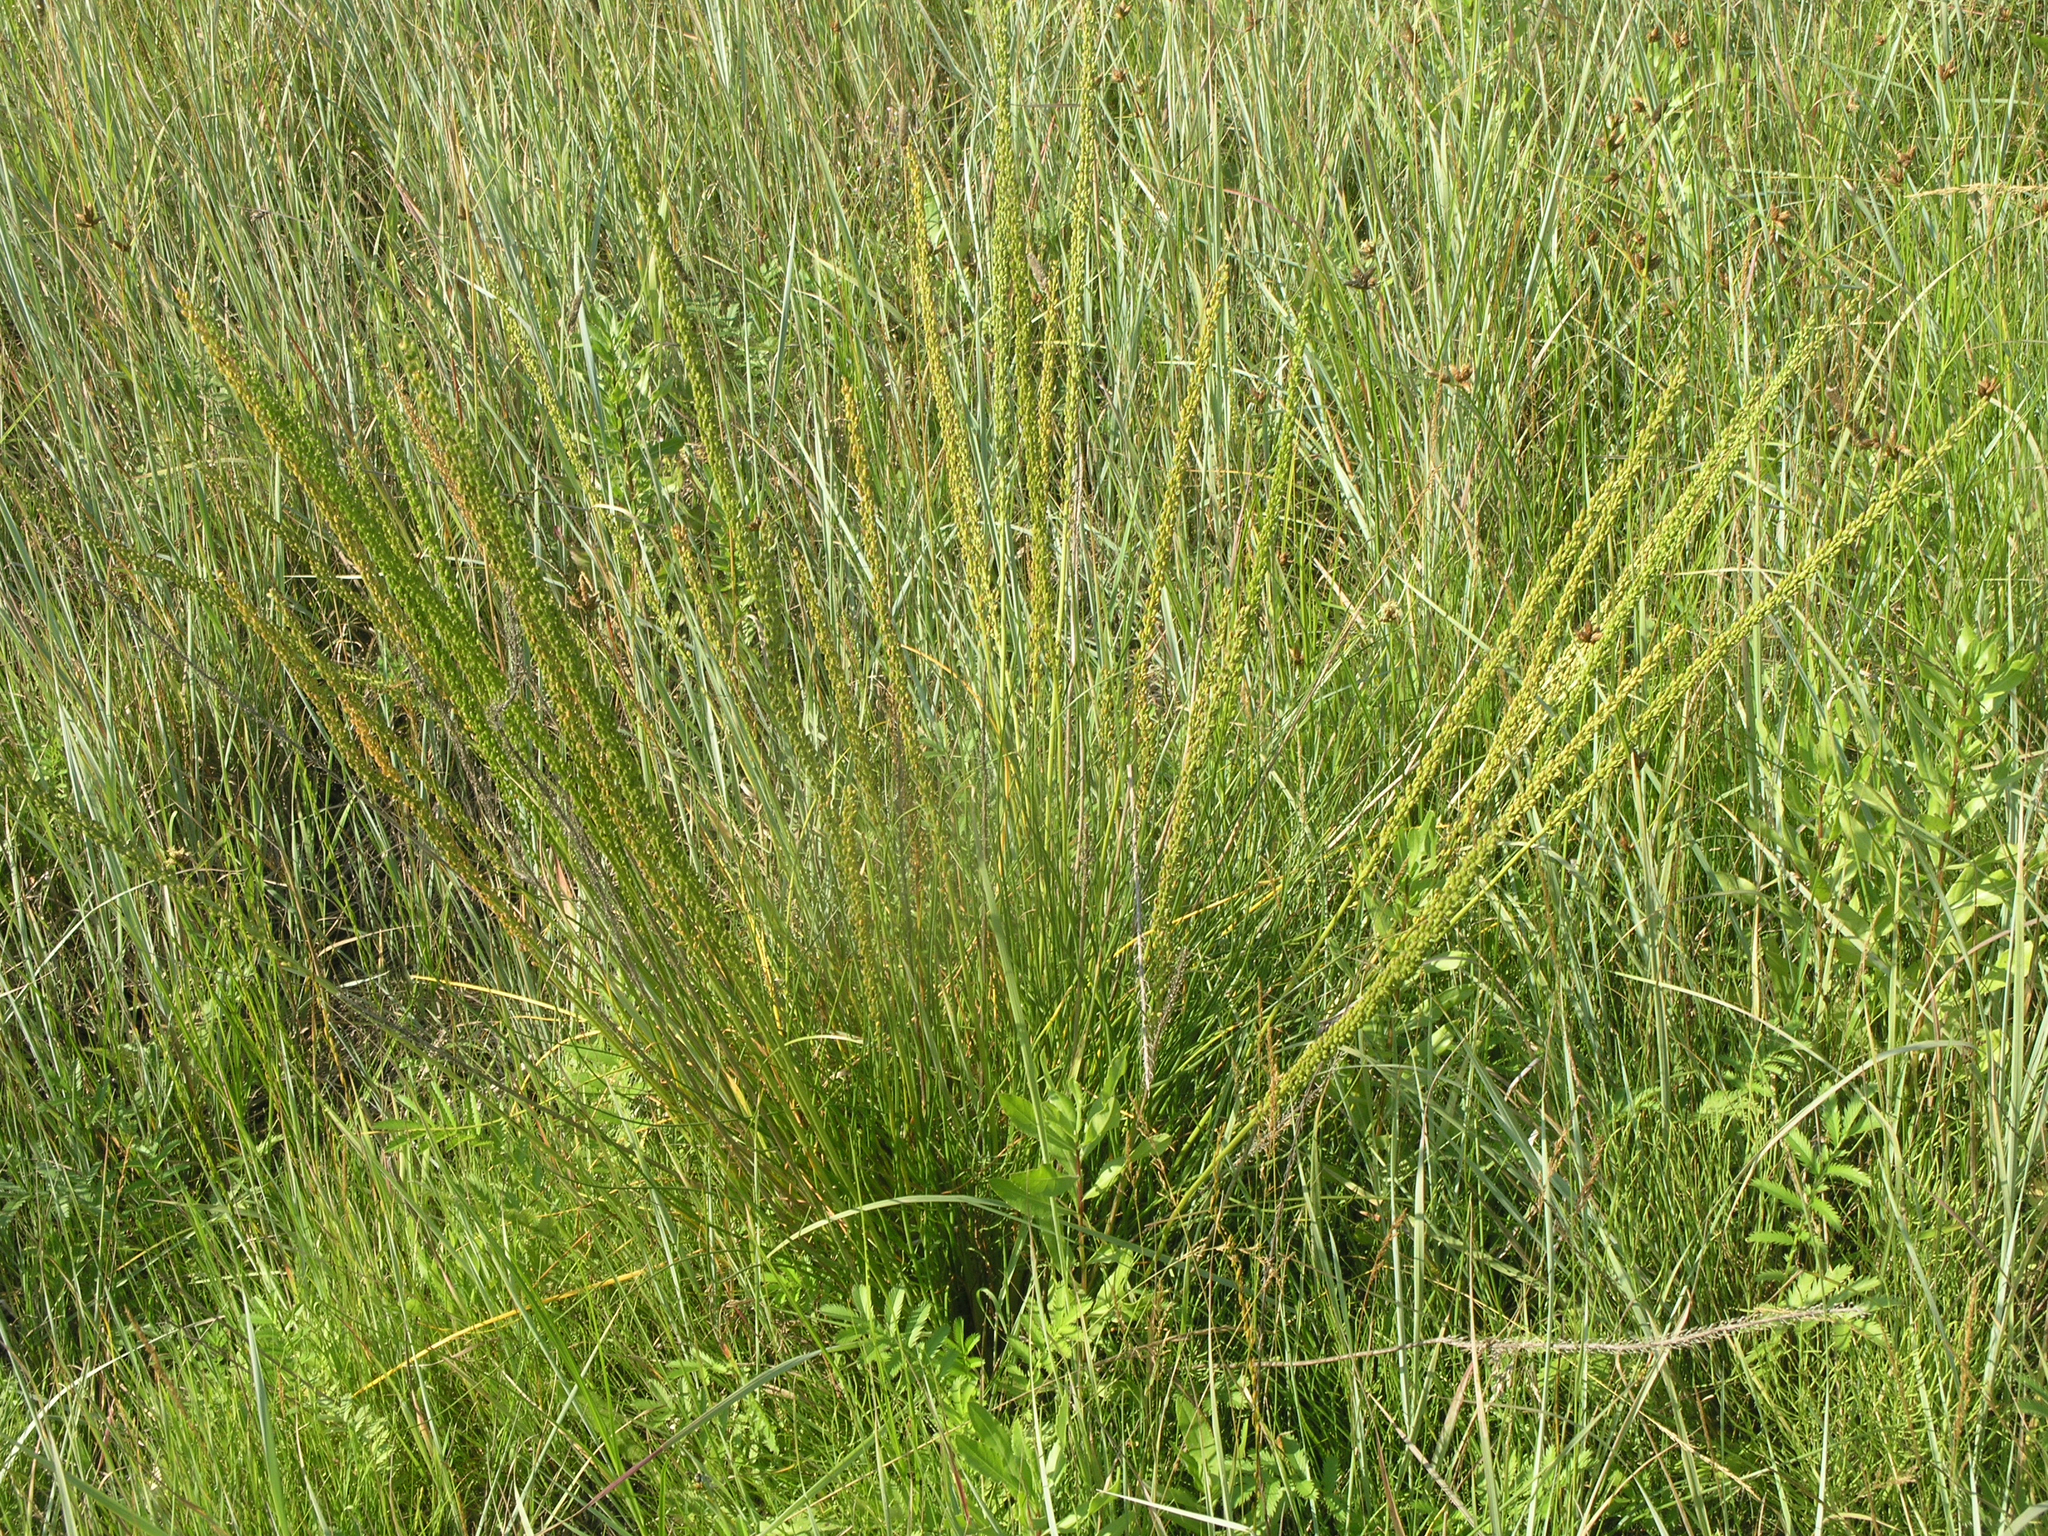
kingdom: Plantae
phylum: Tracheophyta
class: Liliopsida
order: Alismatales
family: Juncaginaceae
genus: Triglochin
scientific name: Triglochin maritima
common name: Sea arrowgrass
